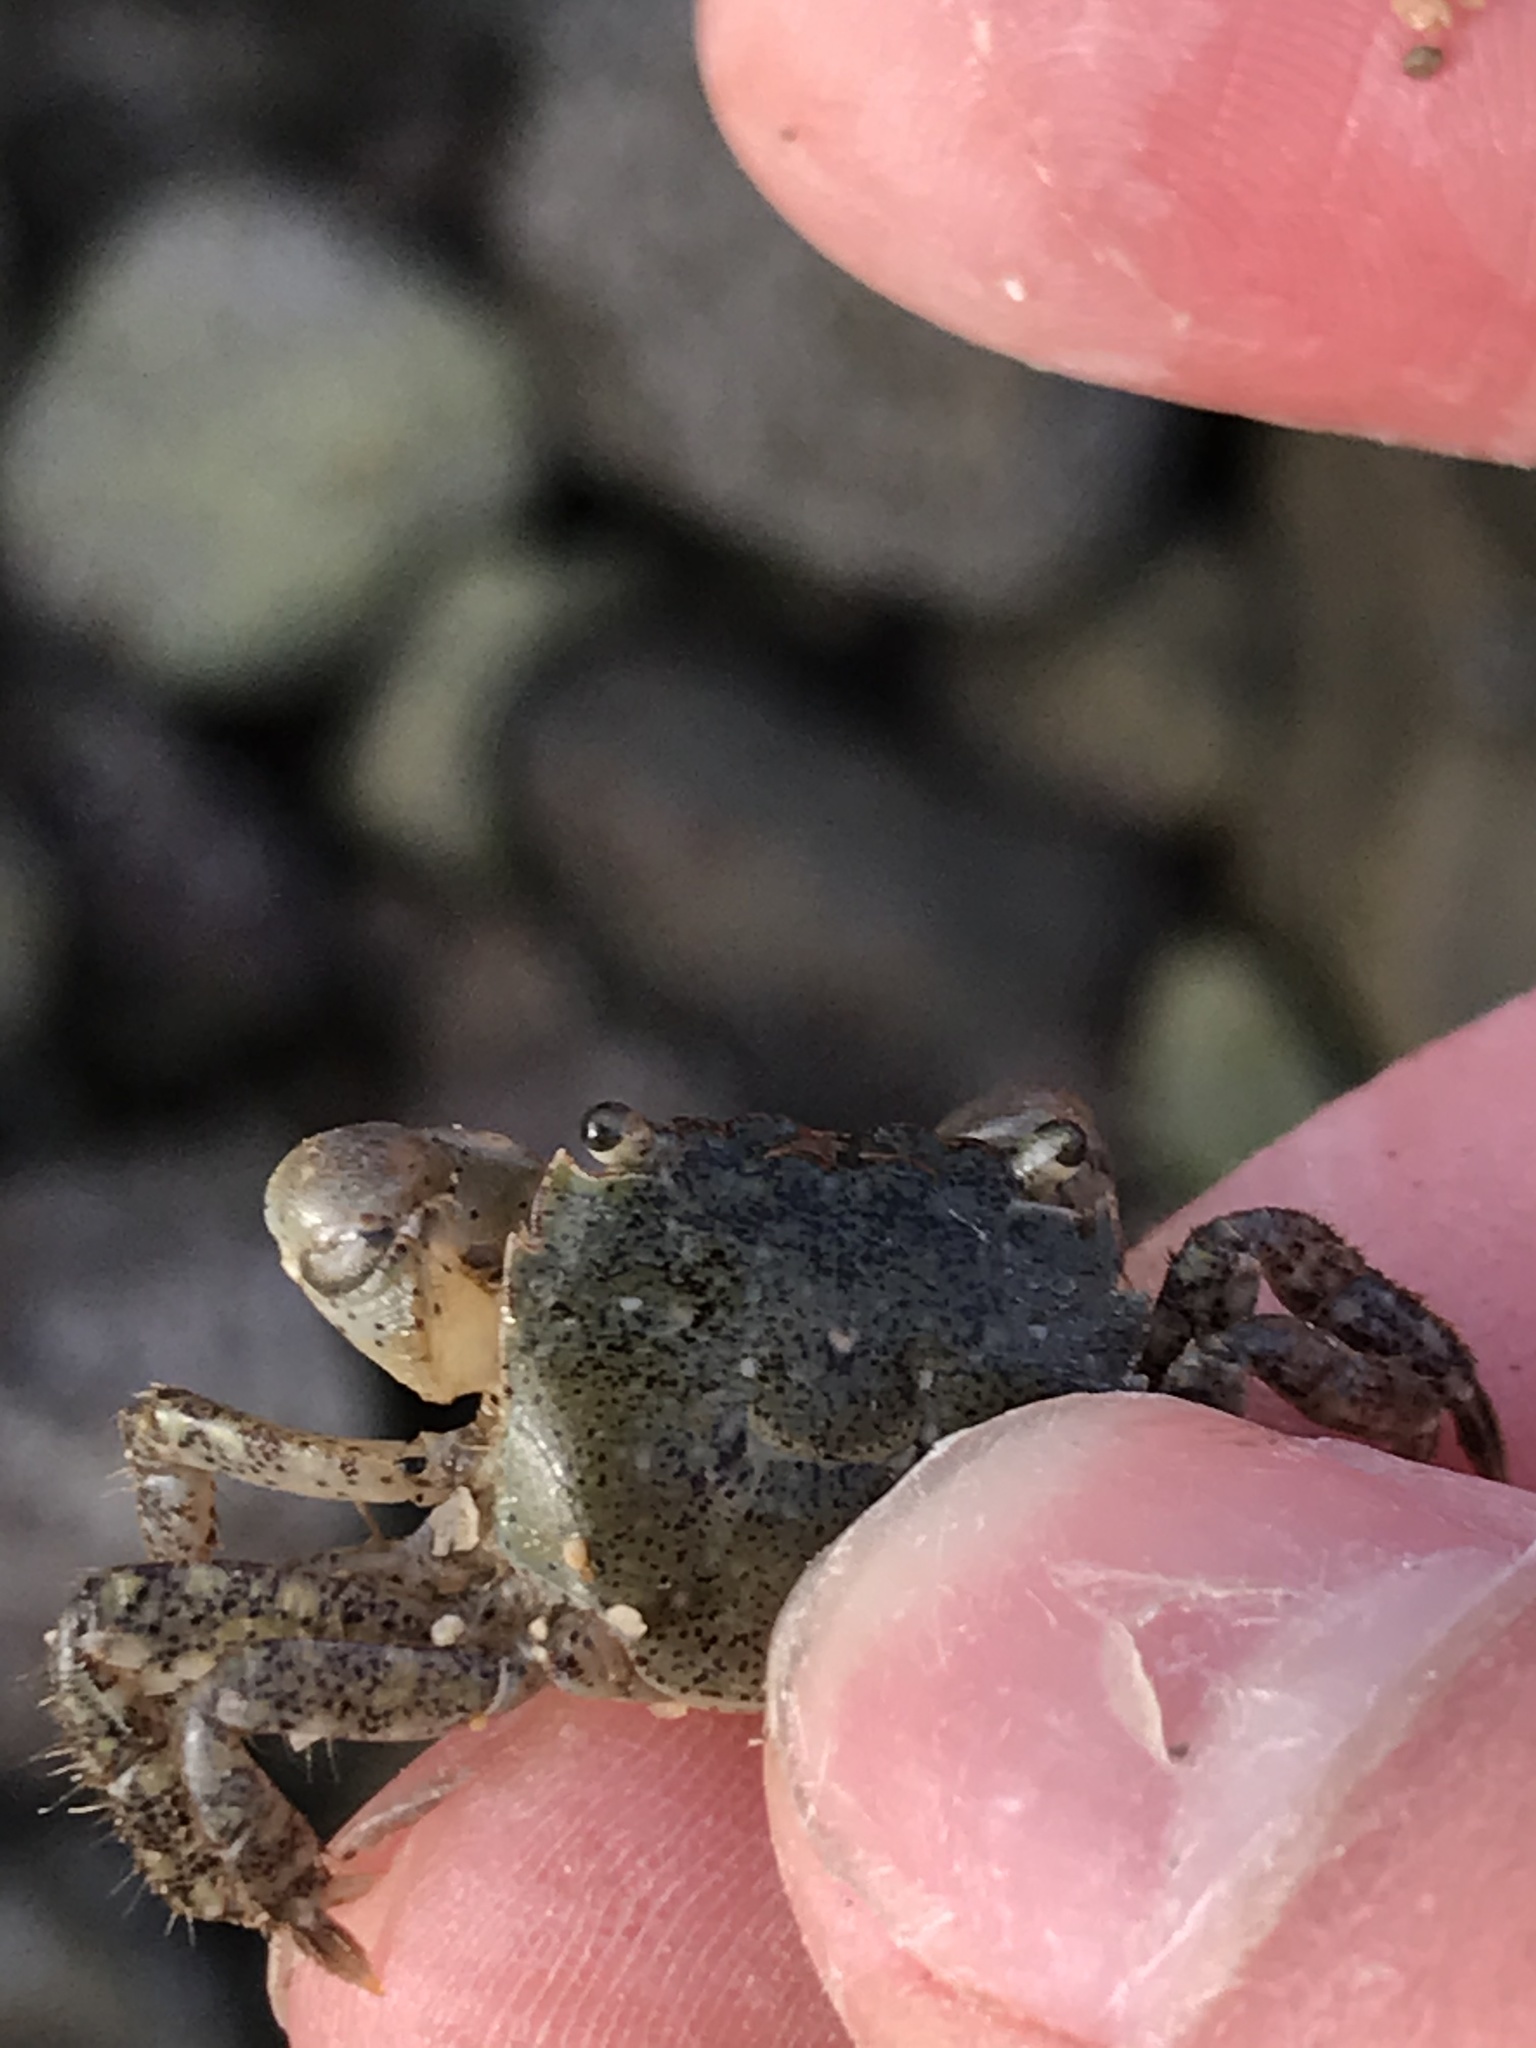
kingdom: Animalia
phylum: Arthropoda
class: Malacostraca
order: Decapoda
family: Varunidae
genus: Hemigrapsus
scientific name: Hemigrapsus oregonensis
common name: Yellow shore crab
